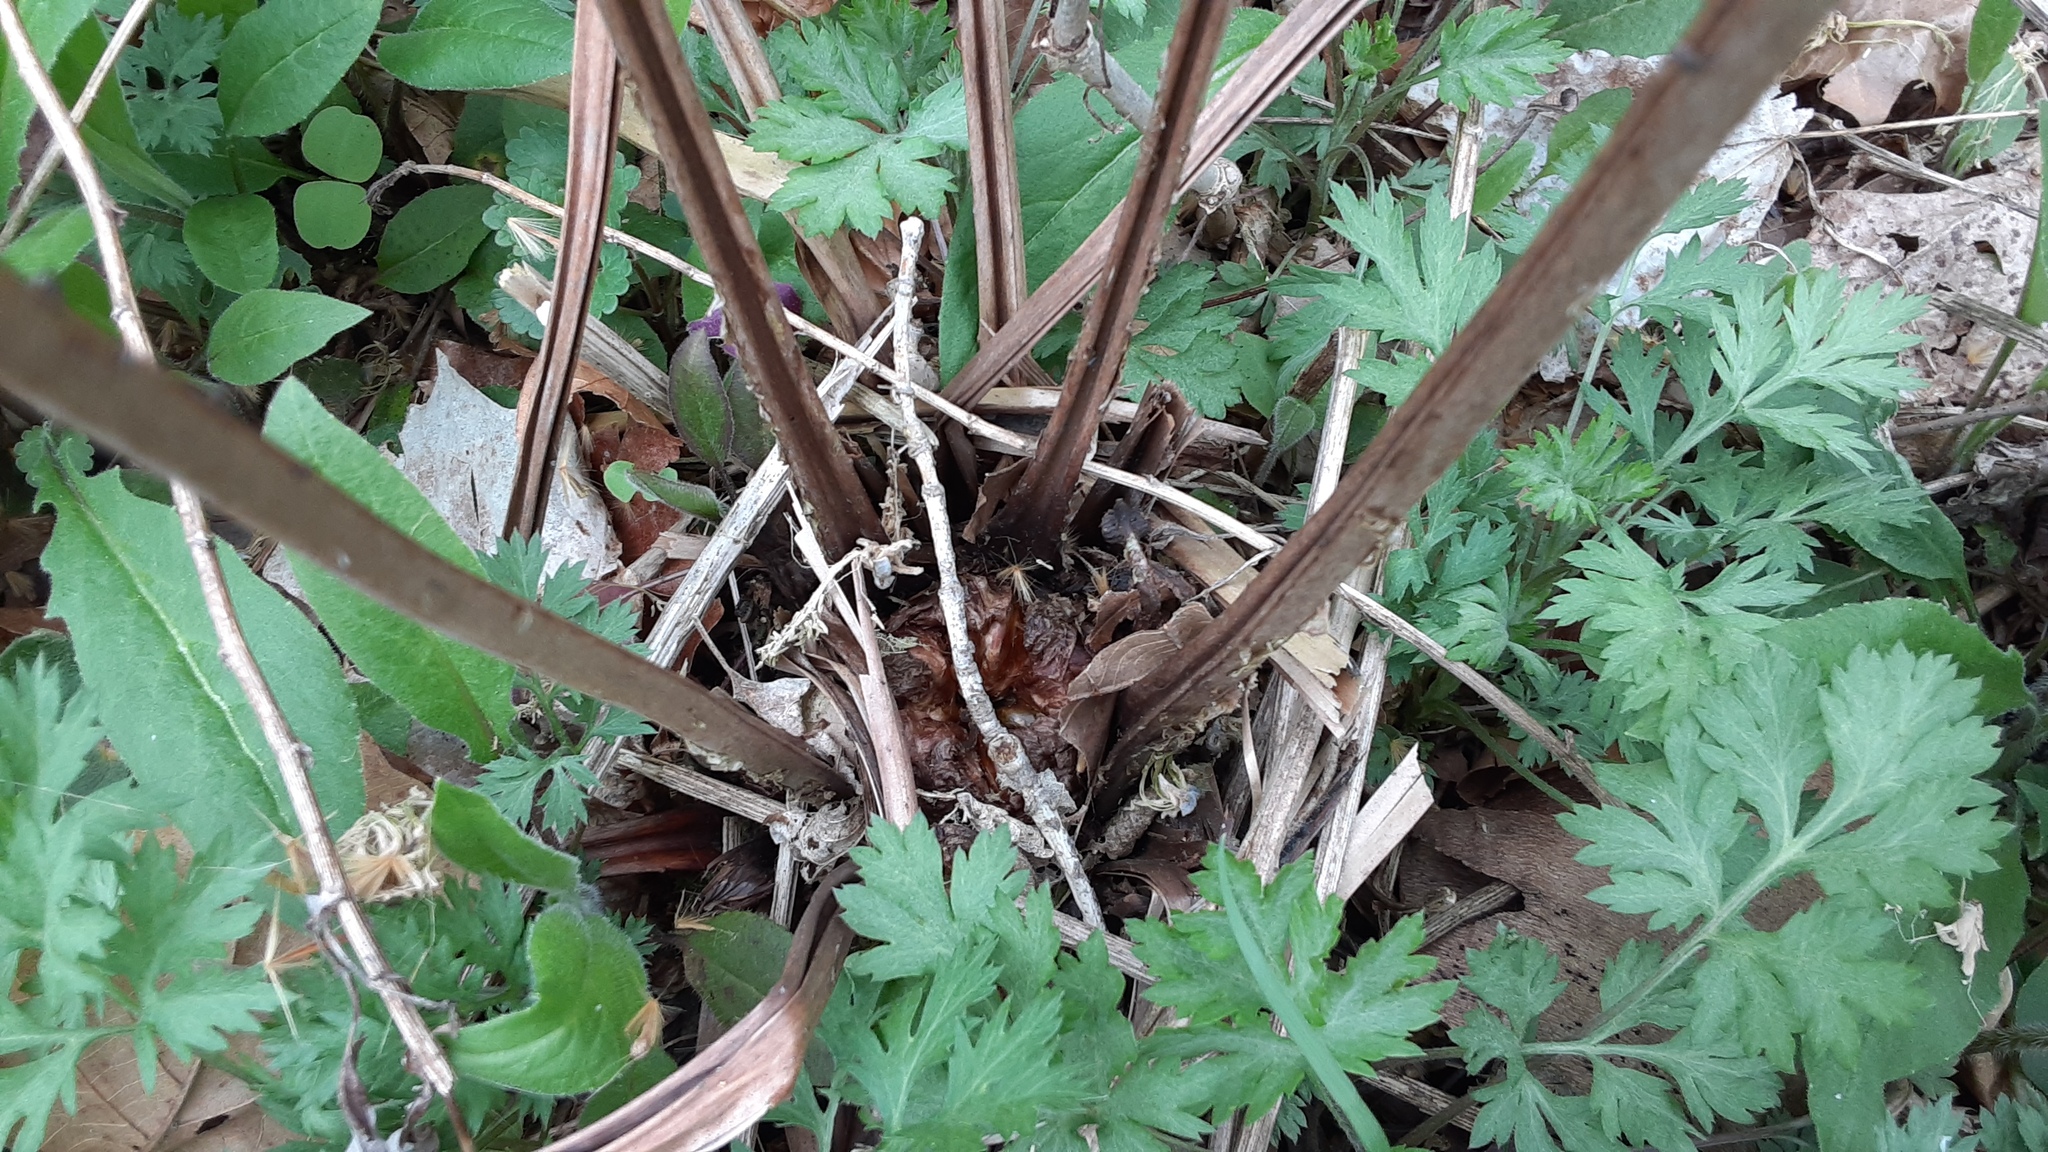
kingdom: Plantae
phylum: Tracheophyta
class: Polypodiopsida
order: Polypodiales
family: Onocleaceae
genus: Matteuccia
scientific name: Matteuccia struthiopteris
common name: Ostrich fern
